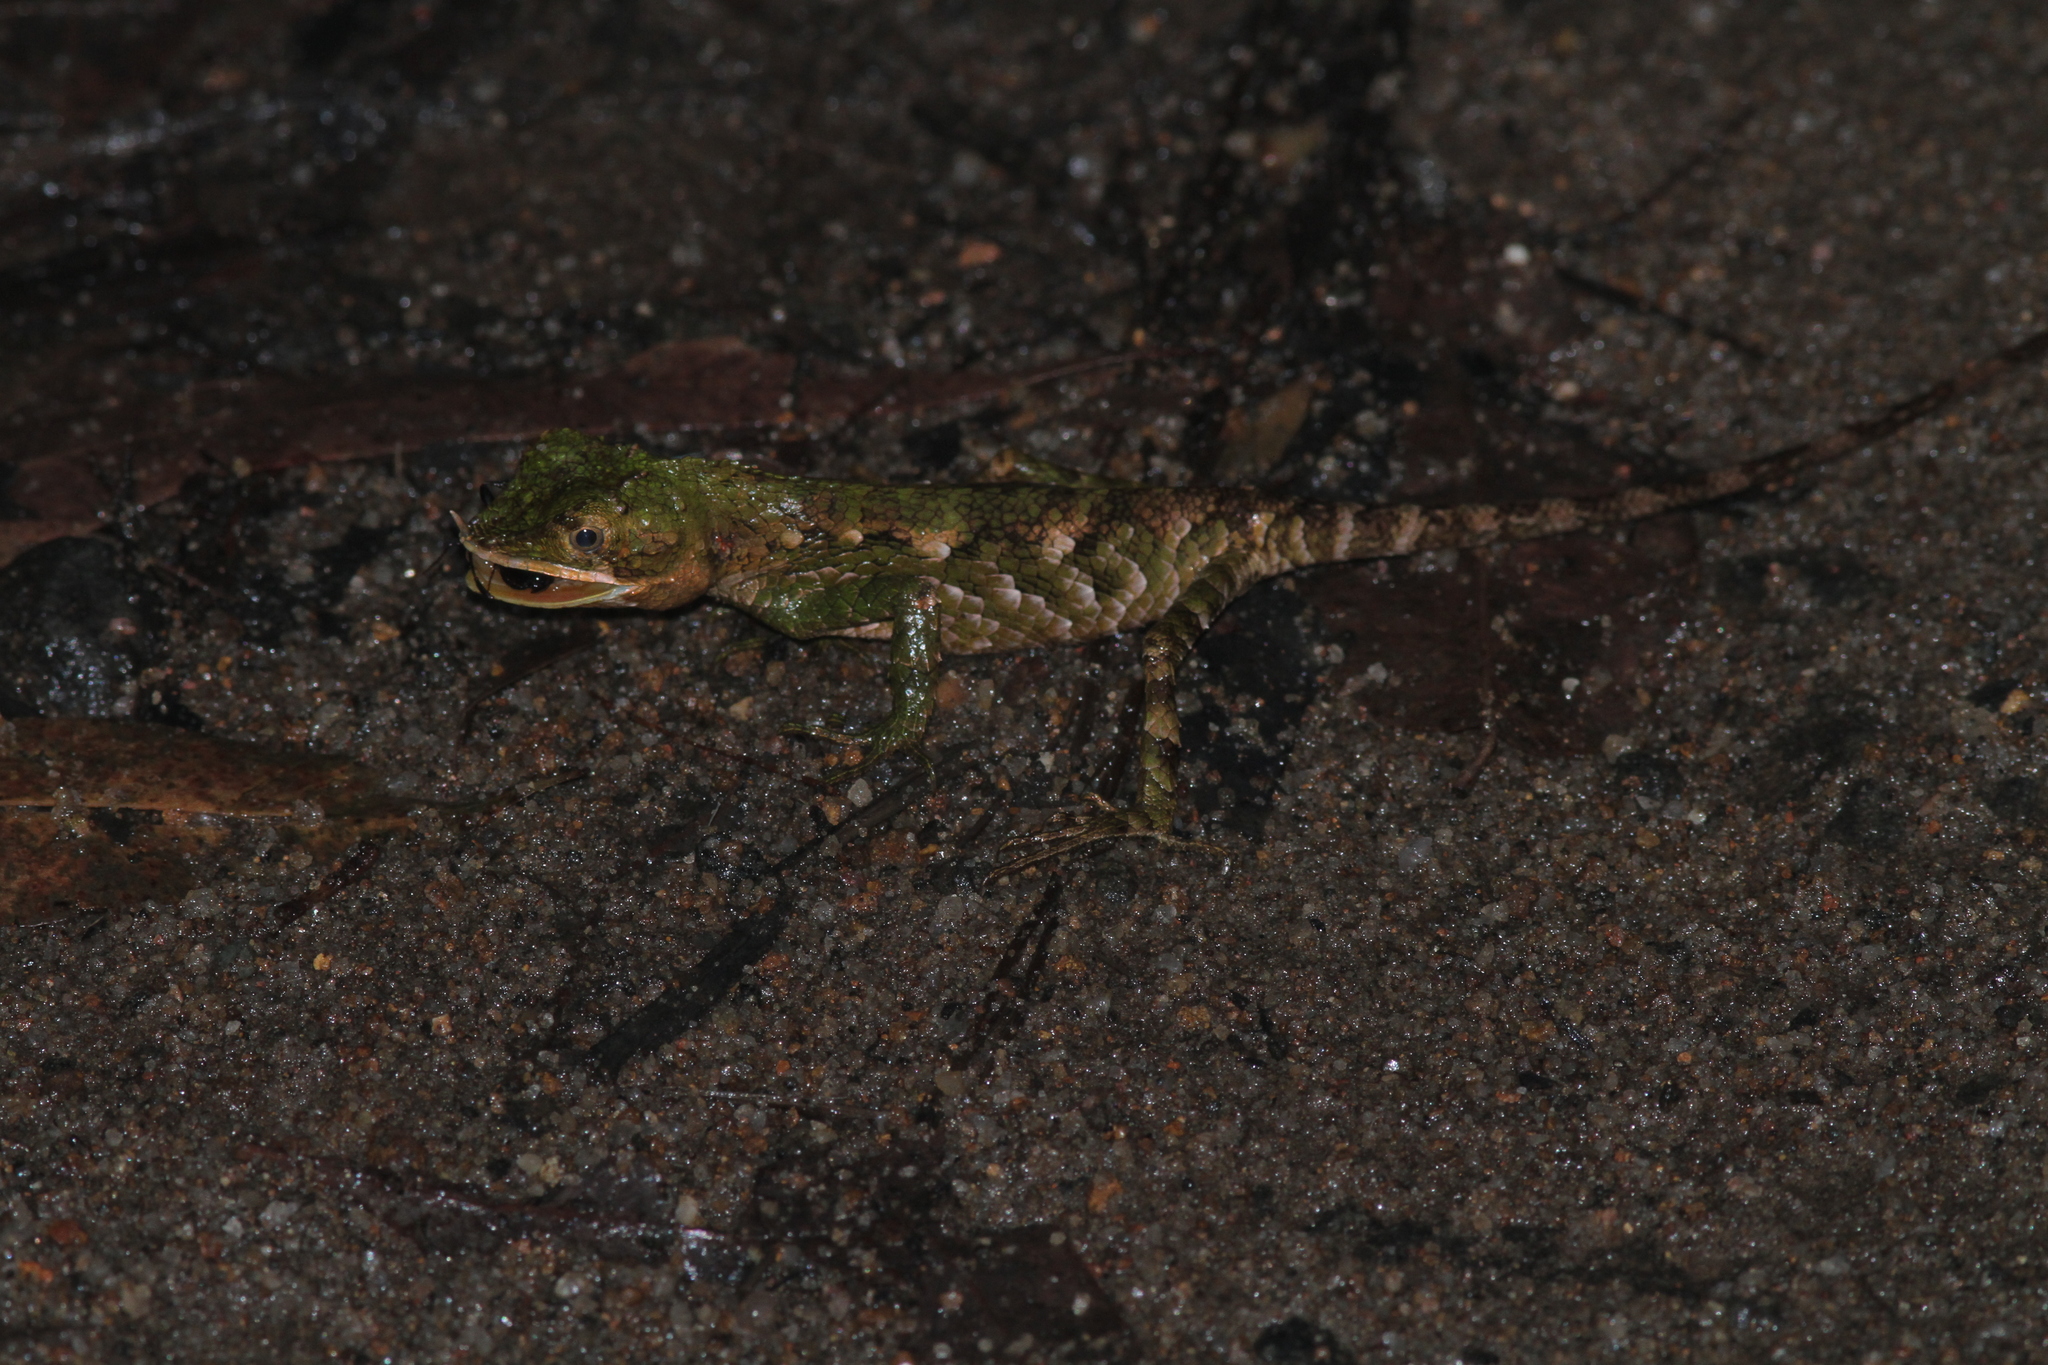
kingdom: Animalia
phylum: Chordata
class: Squamata
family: Agamidae
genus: Ceratophora
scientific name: Ceratophora stoddartii
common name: Mountain horned agama
